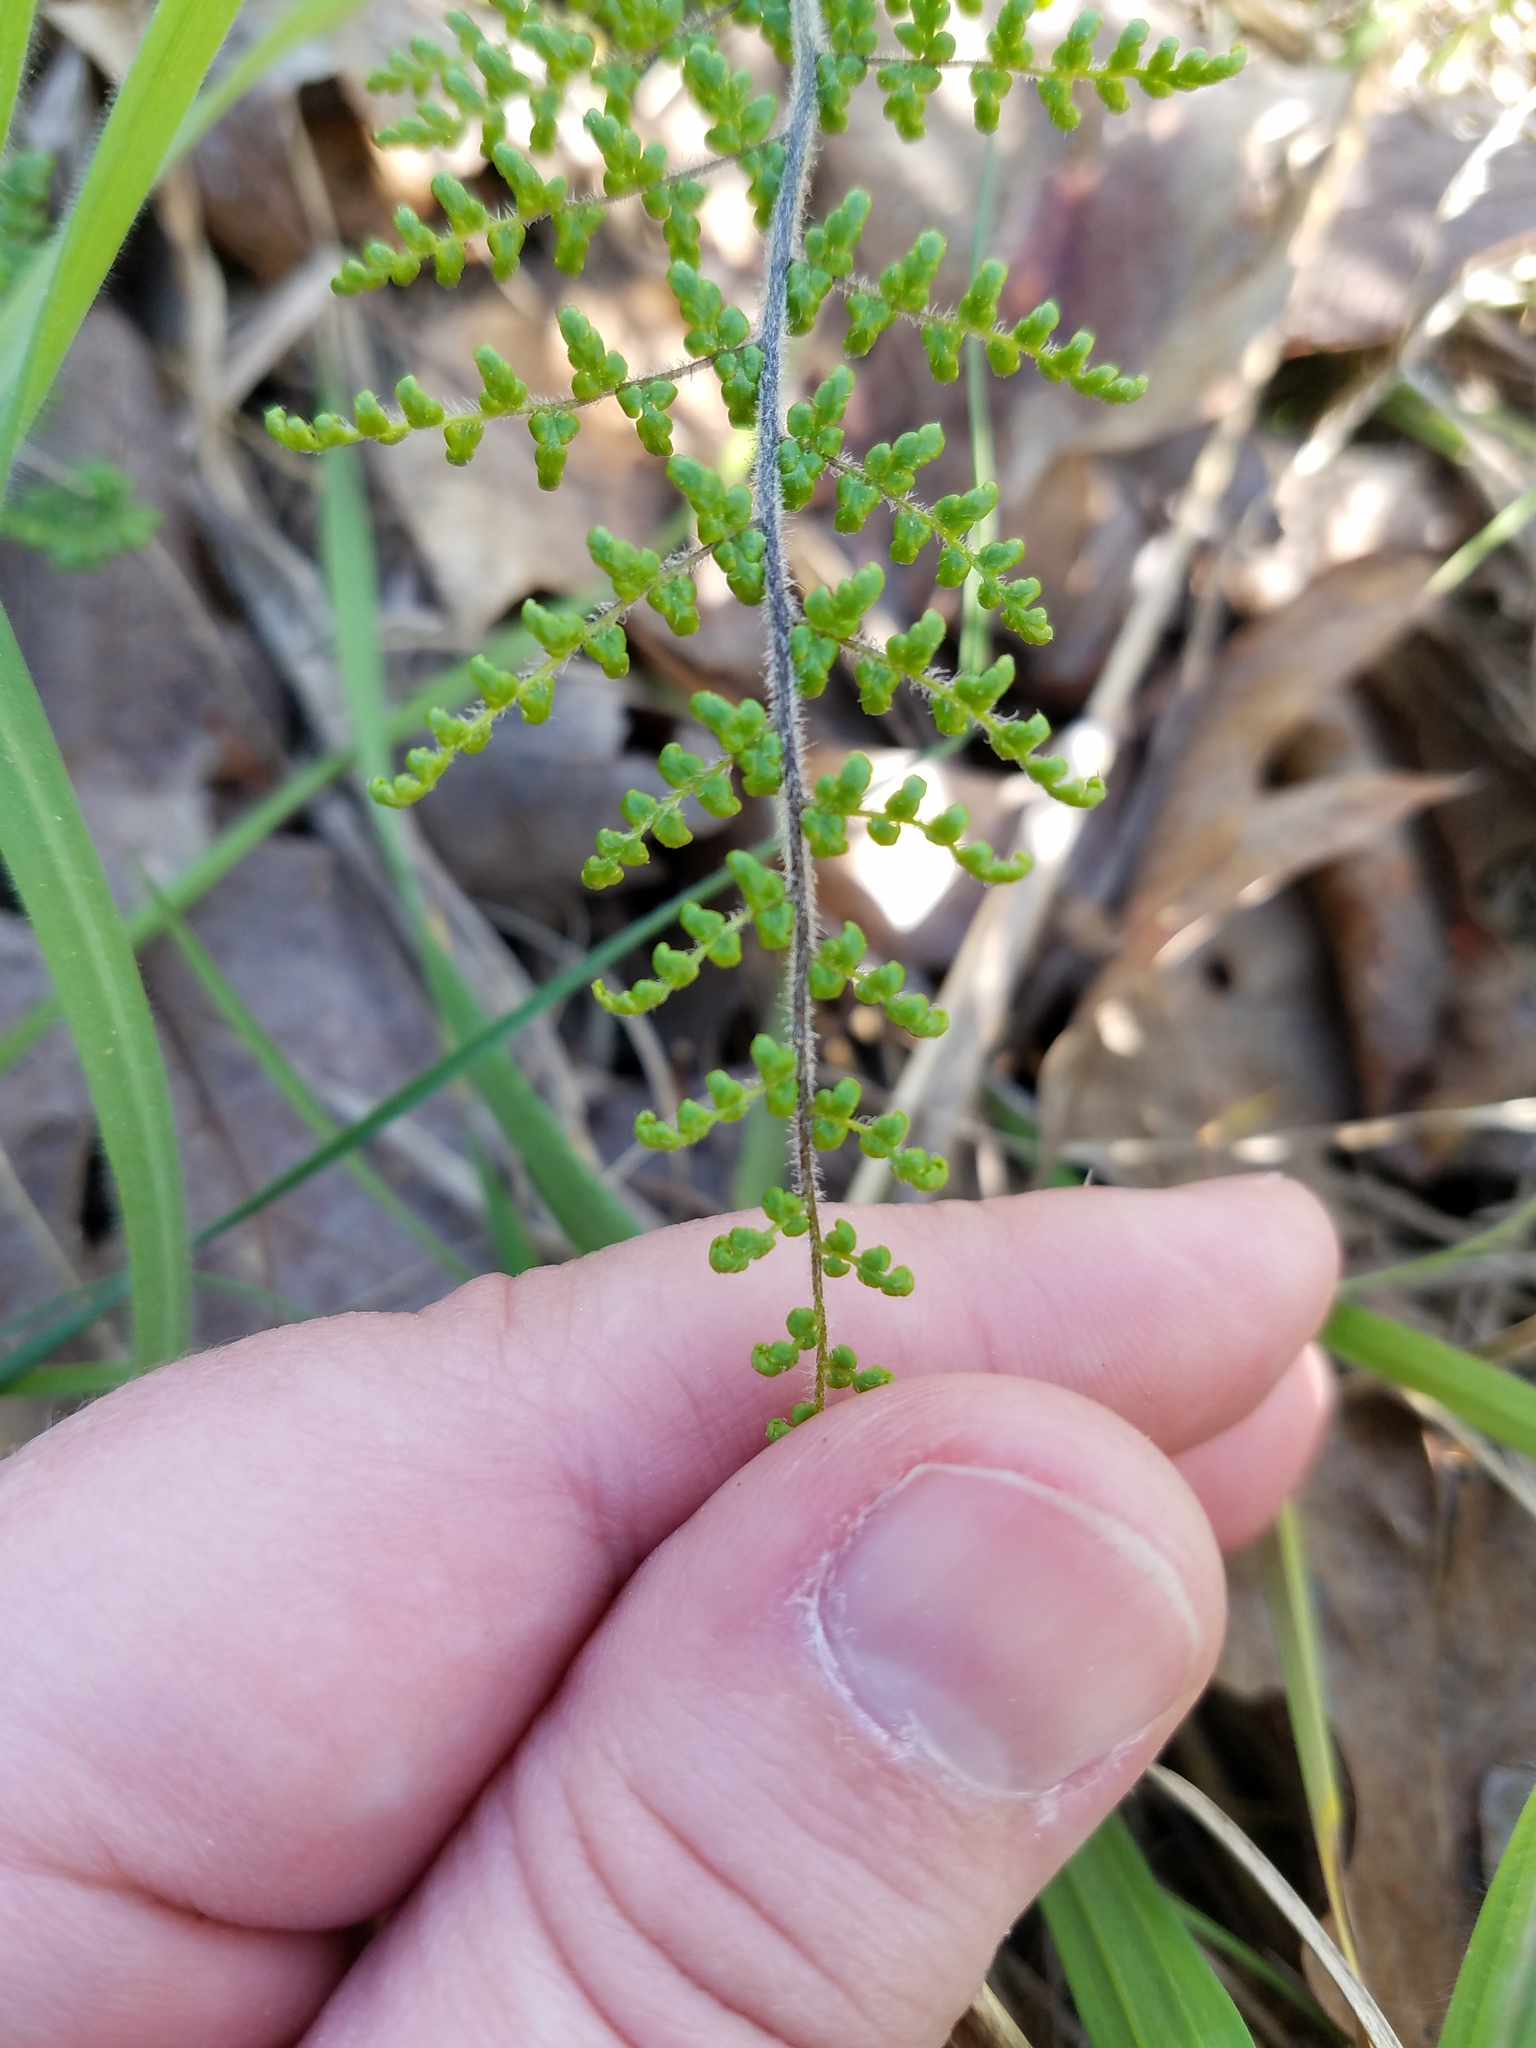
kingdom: Plantae
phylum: Tracheophyta
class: Polypodiopsida
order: Polypodiales
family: Pteridaceae
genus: Myriopteris
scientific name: Myriopteris lanosa
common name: Hairy lip fern
